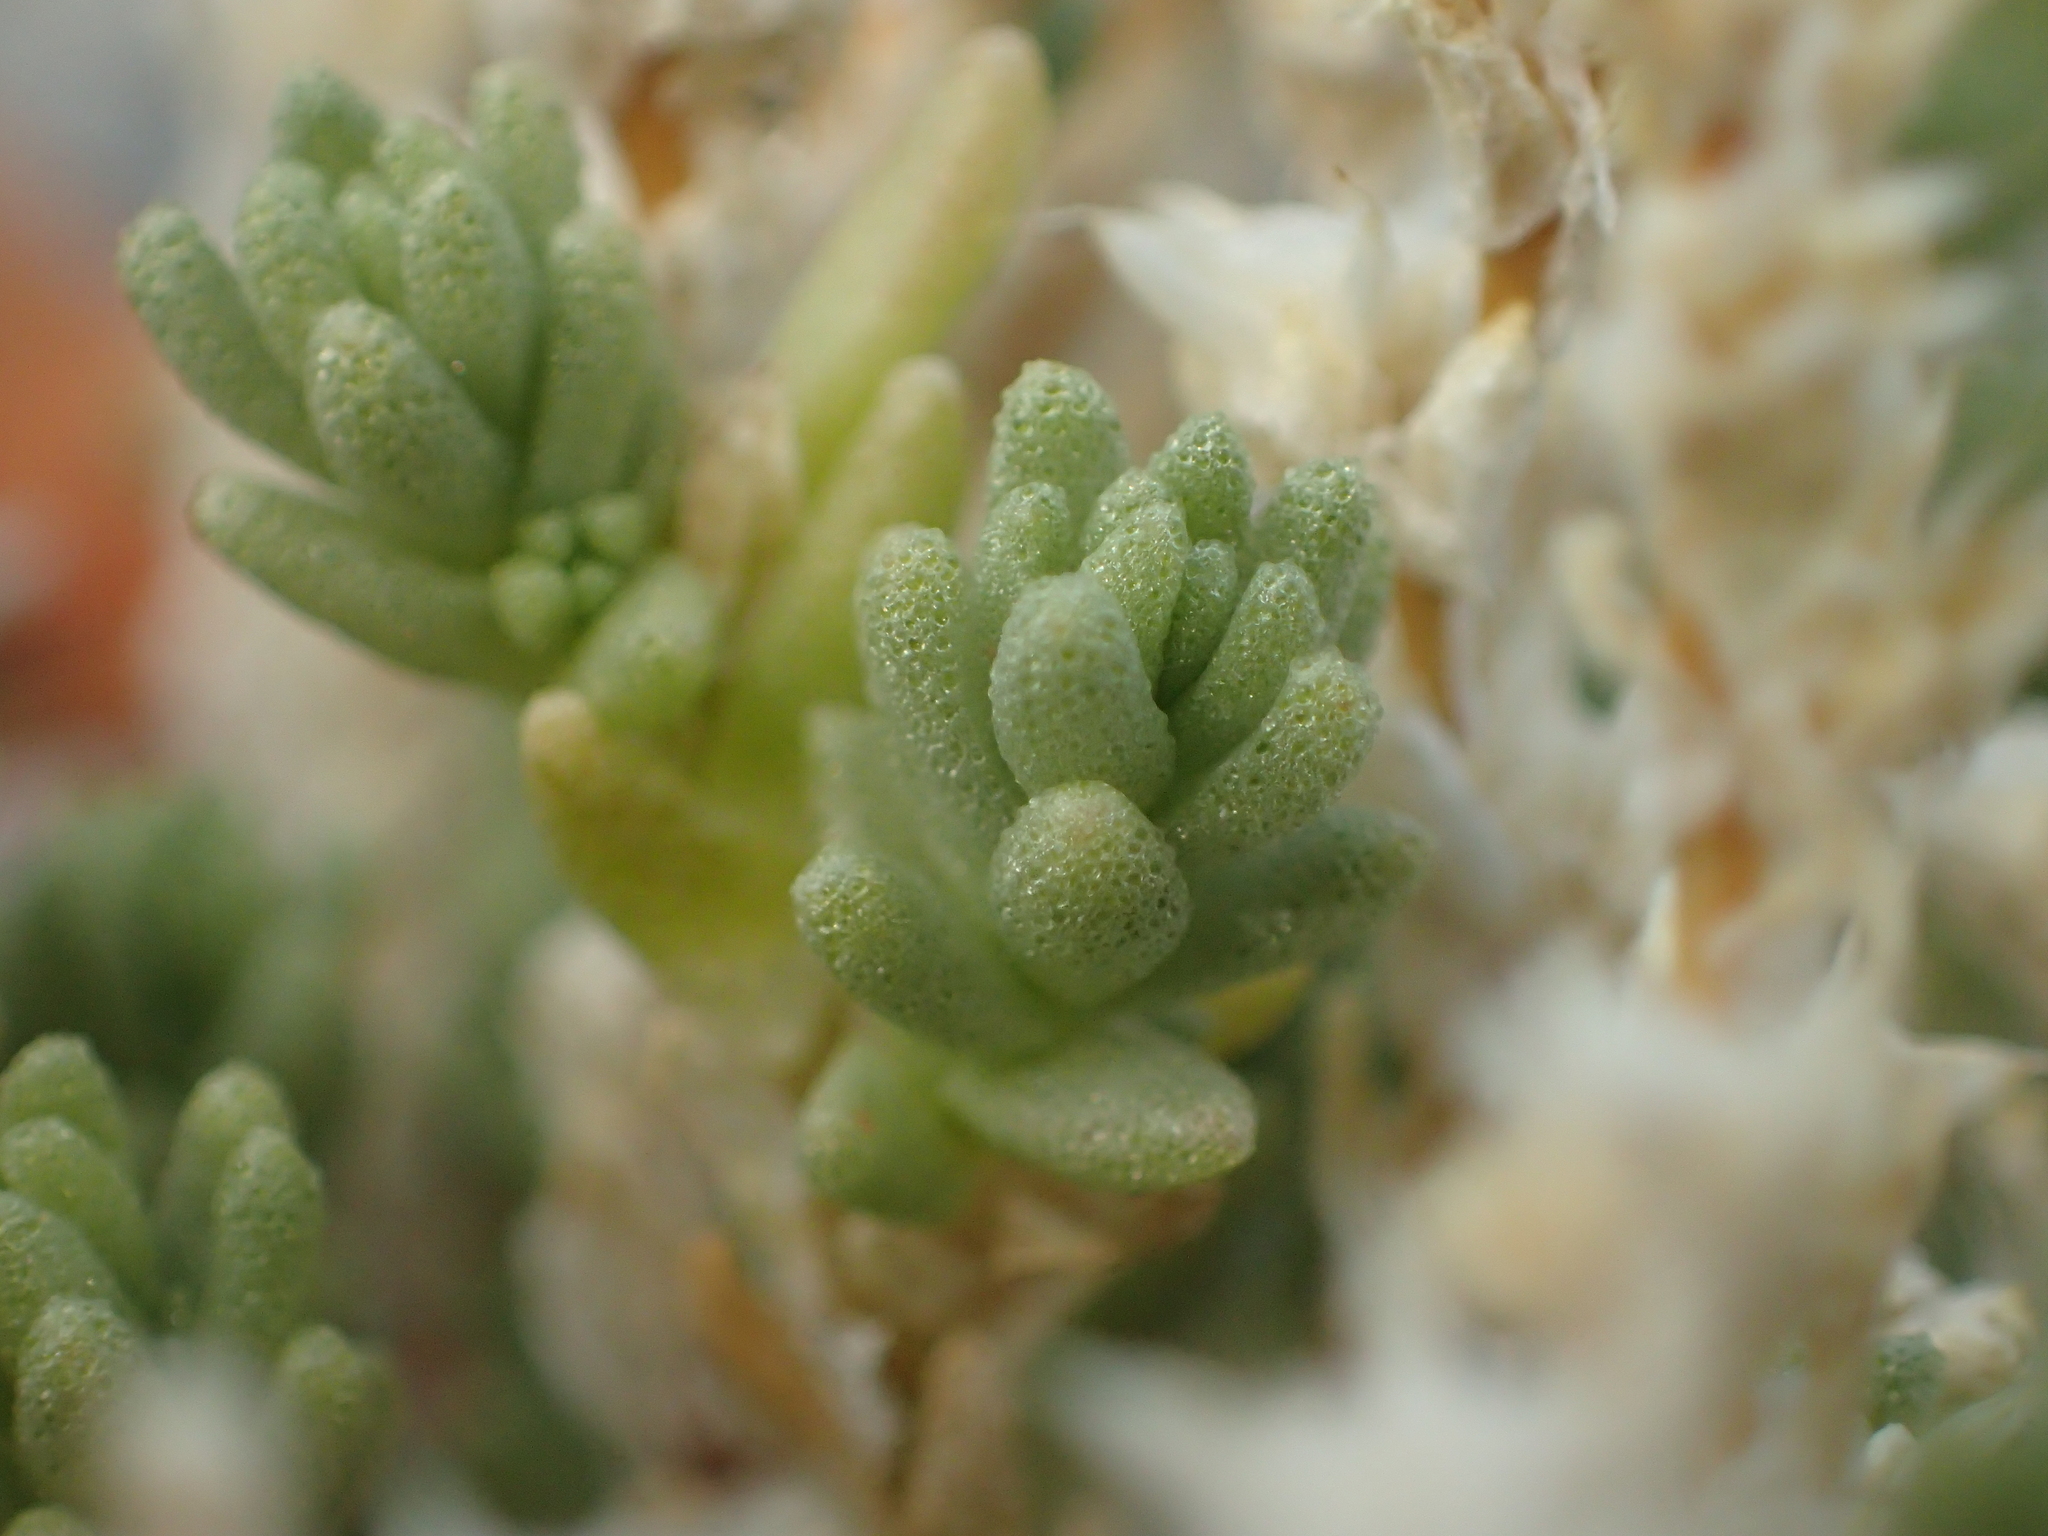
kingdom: Plantae
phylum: Tracheophyta
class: Magnoliopsida
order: Saxifragales
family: Crassulaceae
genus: Sedum
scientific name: Sedum acre
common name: Biting stonecrop
